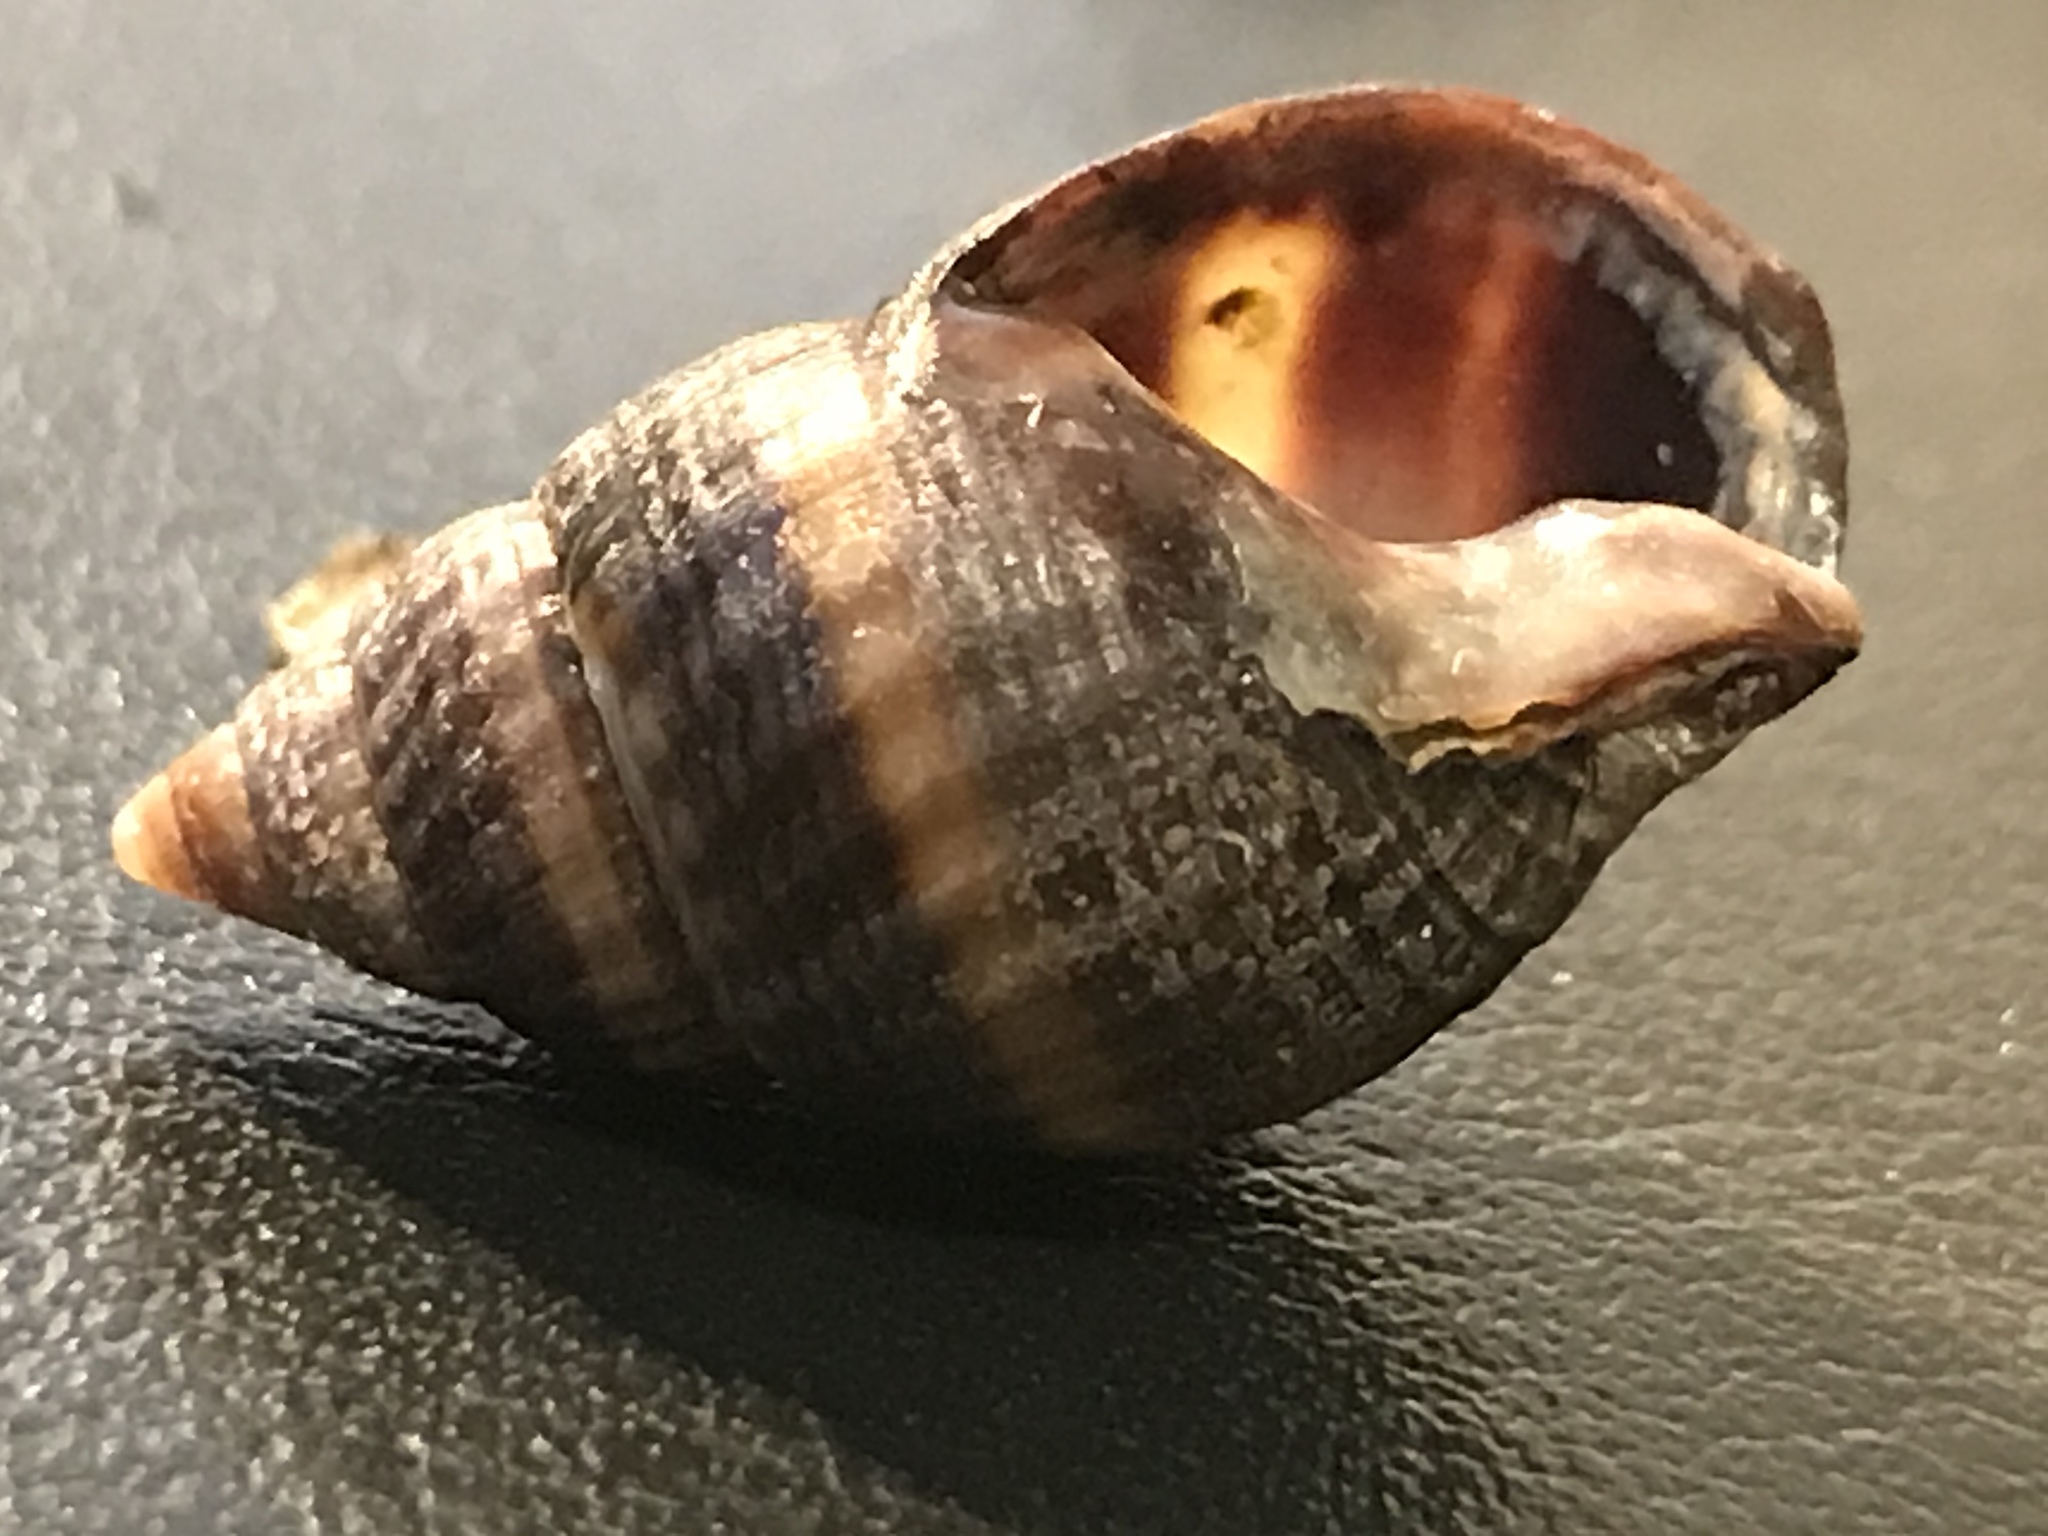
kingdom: Animalia
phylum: Mollusca
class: Gastropoda
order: Neogastropoda
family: Nassariidae
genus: Ilyanassa
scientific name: Ilyanassa obsoleta
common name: Eastern mudsnail
